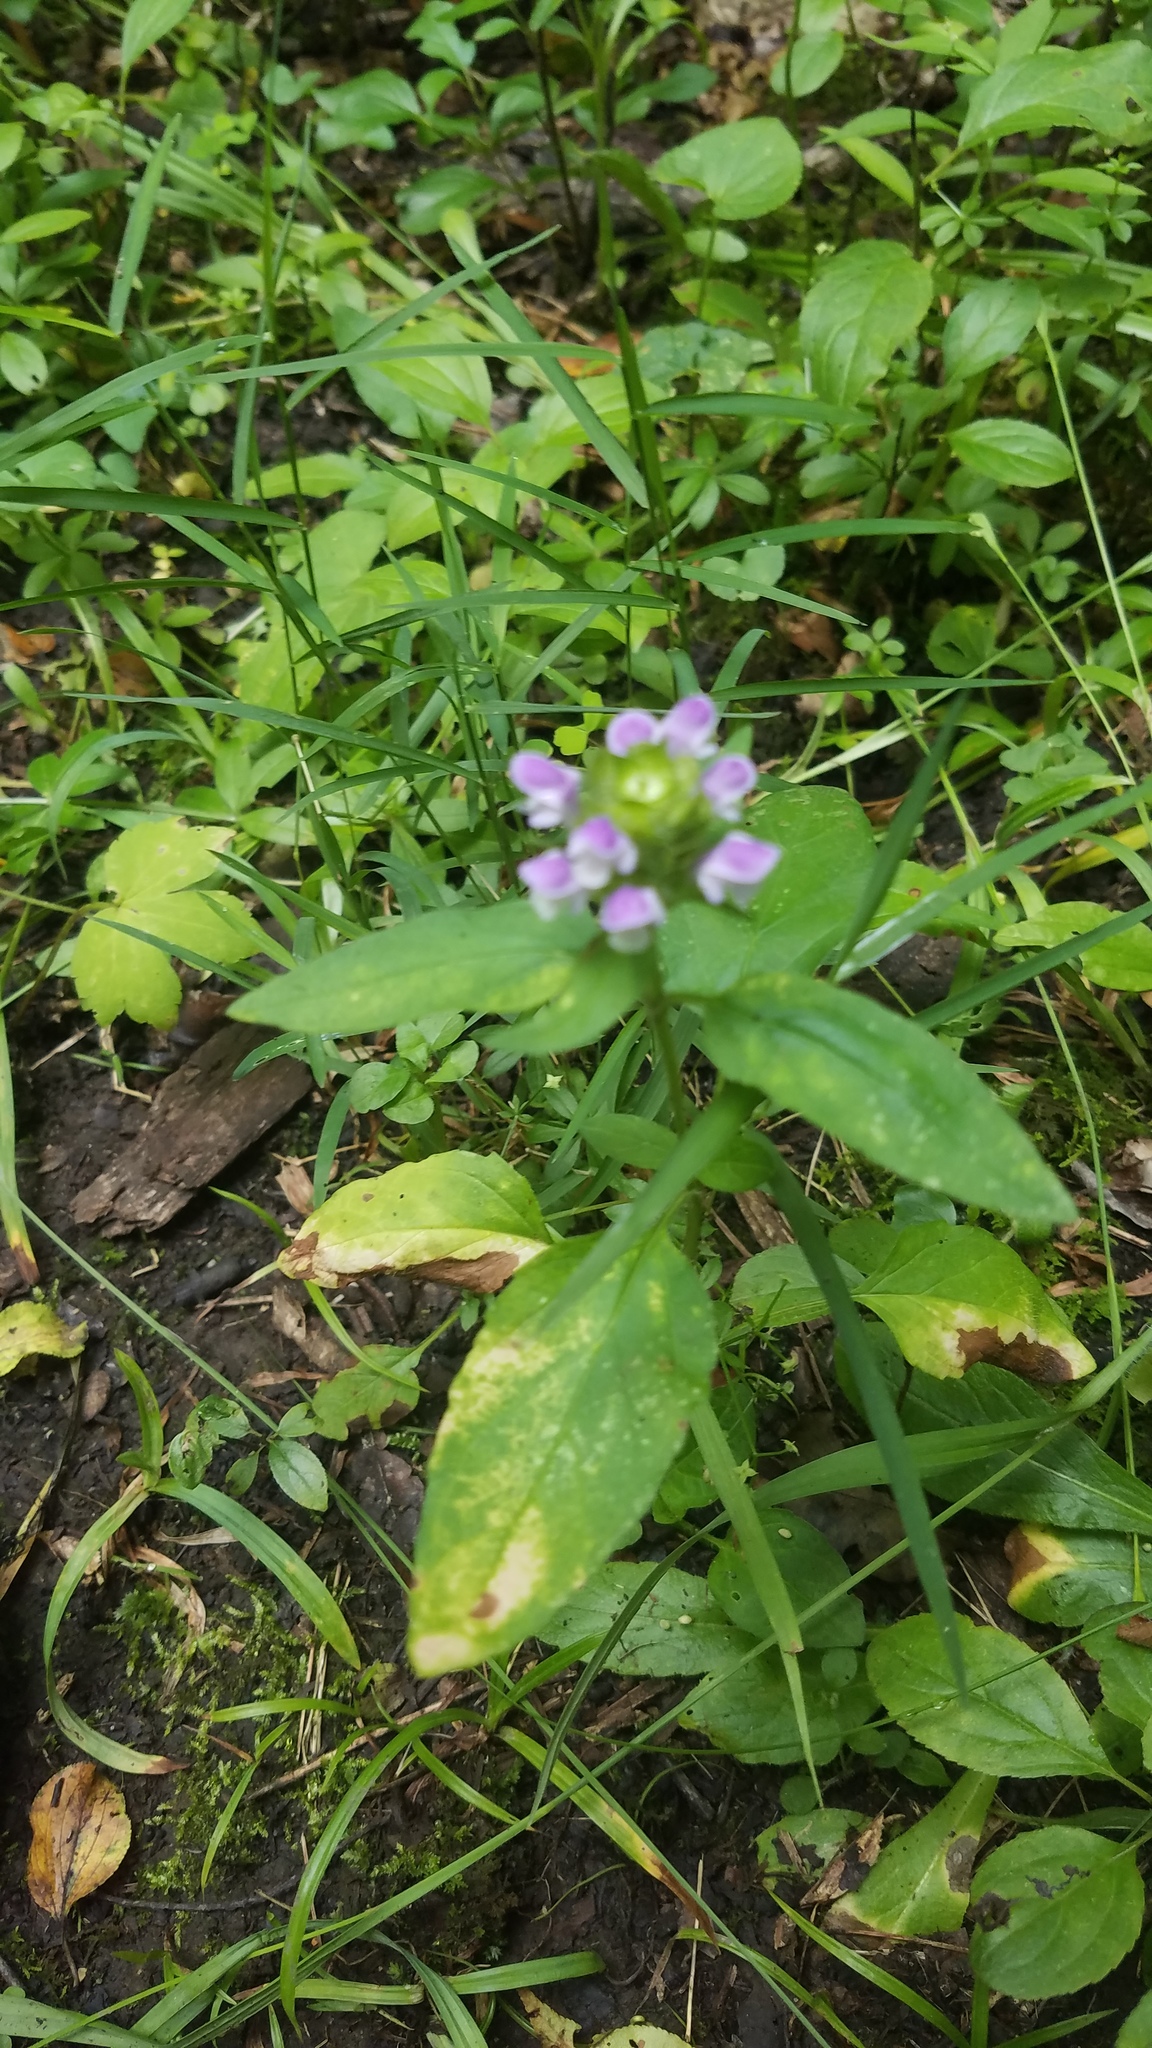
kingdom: Plantae
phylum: Tracheophyta
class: Magnoliopsida
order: Lamiales
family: Lamiaceae
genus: Prunella
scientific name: Prunella vulgaris
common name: Heal-all
